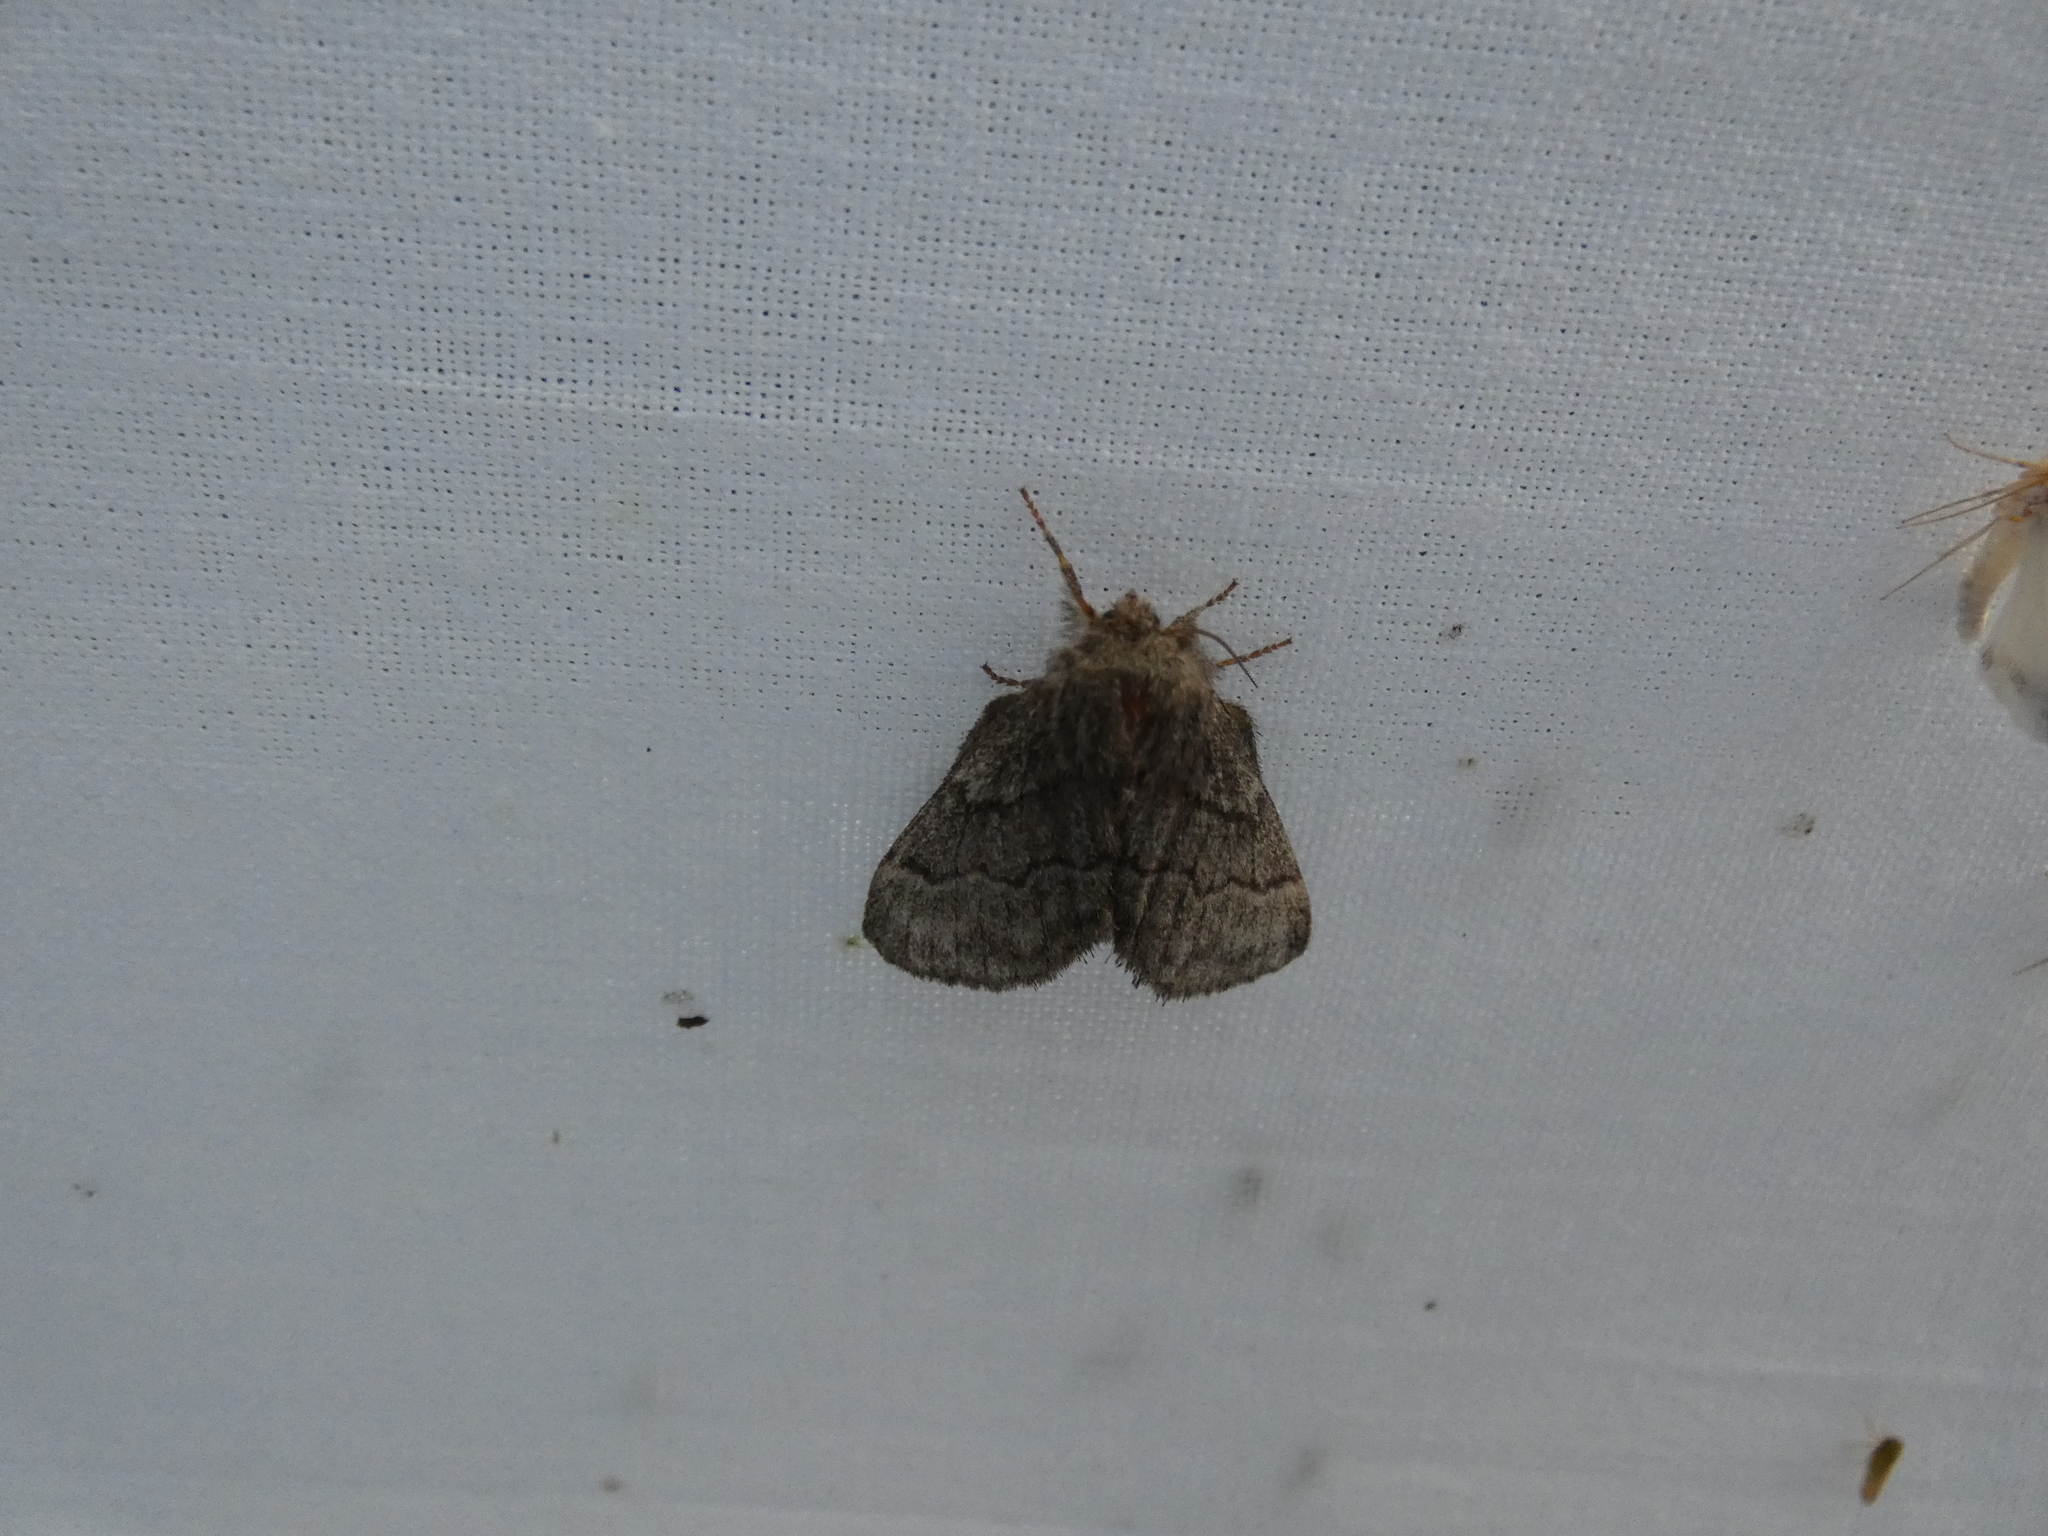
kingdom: Animalia
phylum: Arthropoda
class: Insecta
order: Lepidoptera
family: Lasiocampidae
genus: Trichiura
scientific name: Trichiura crataegi
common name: Pale eggar
